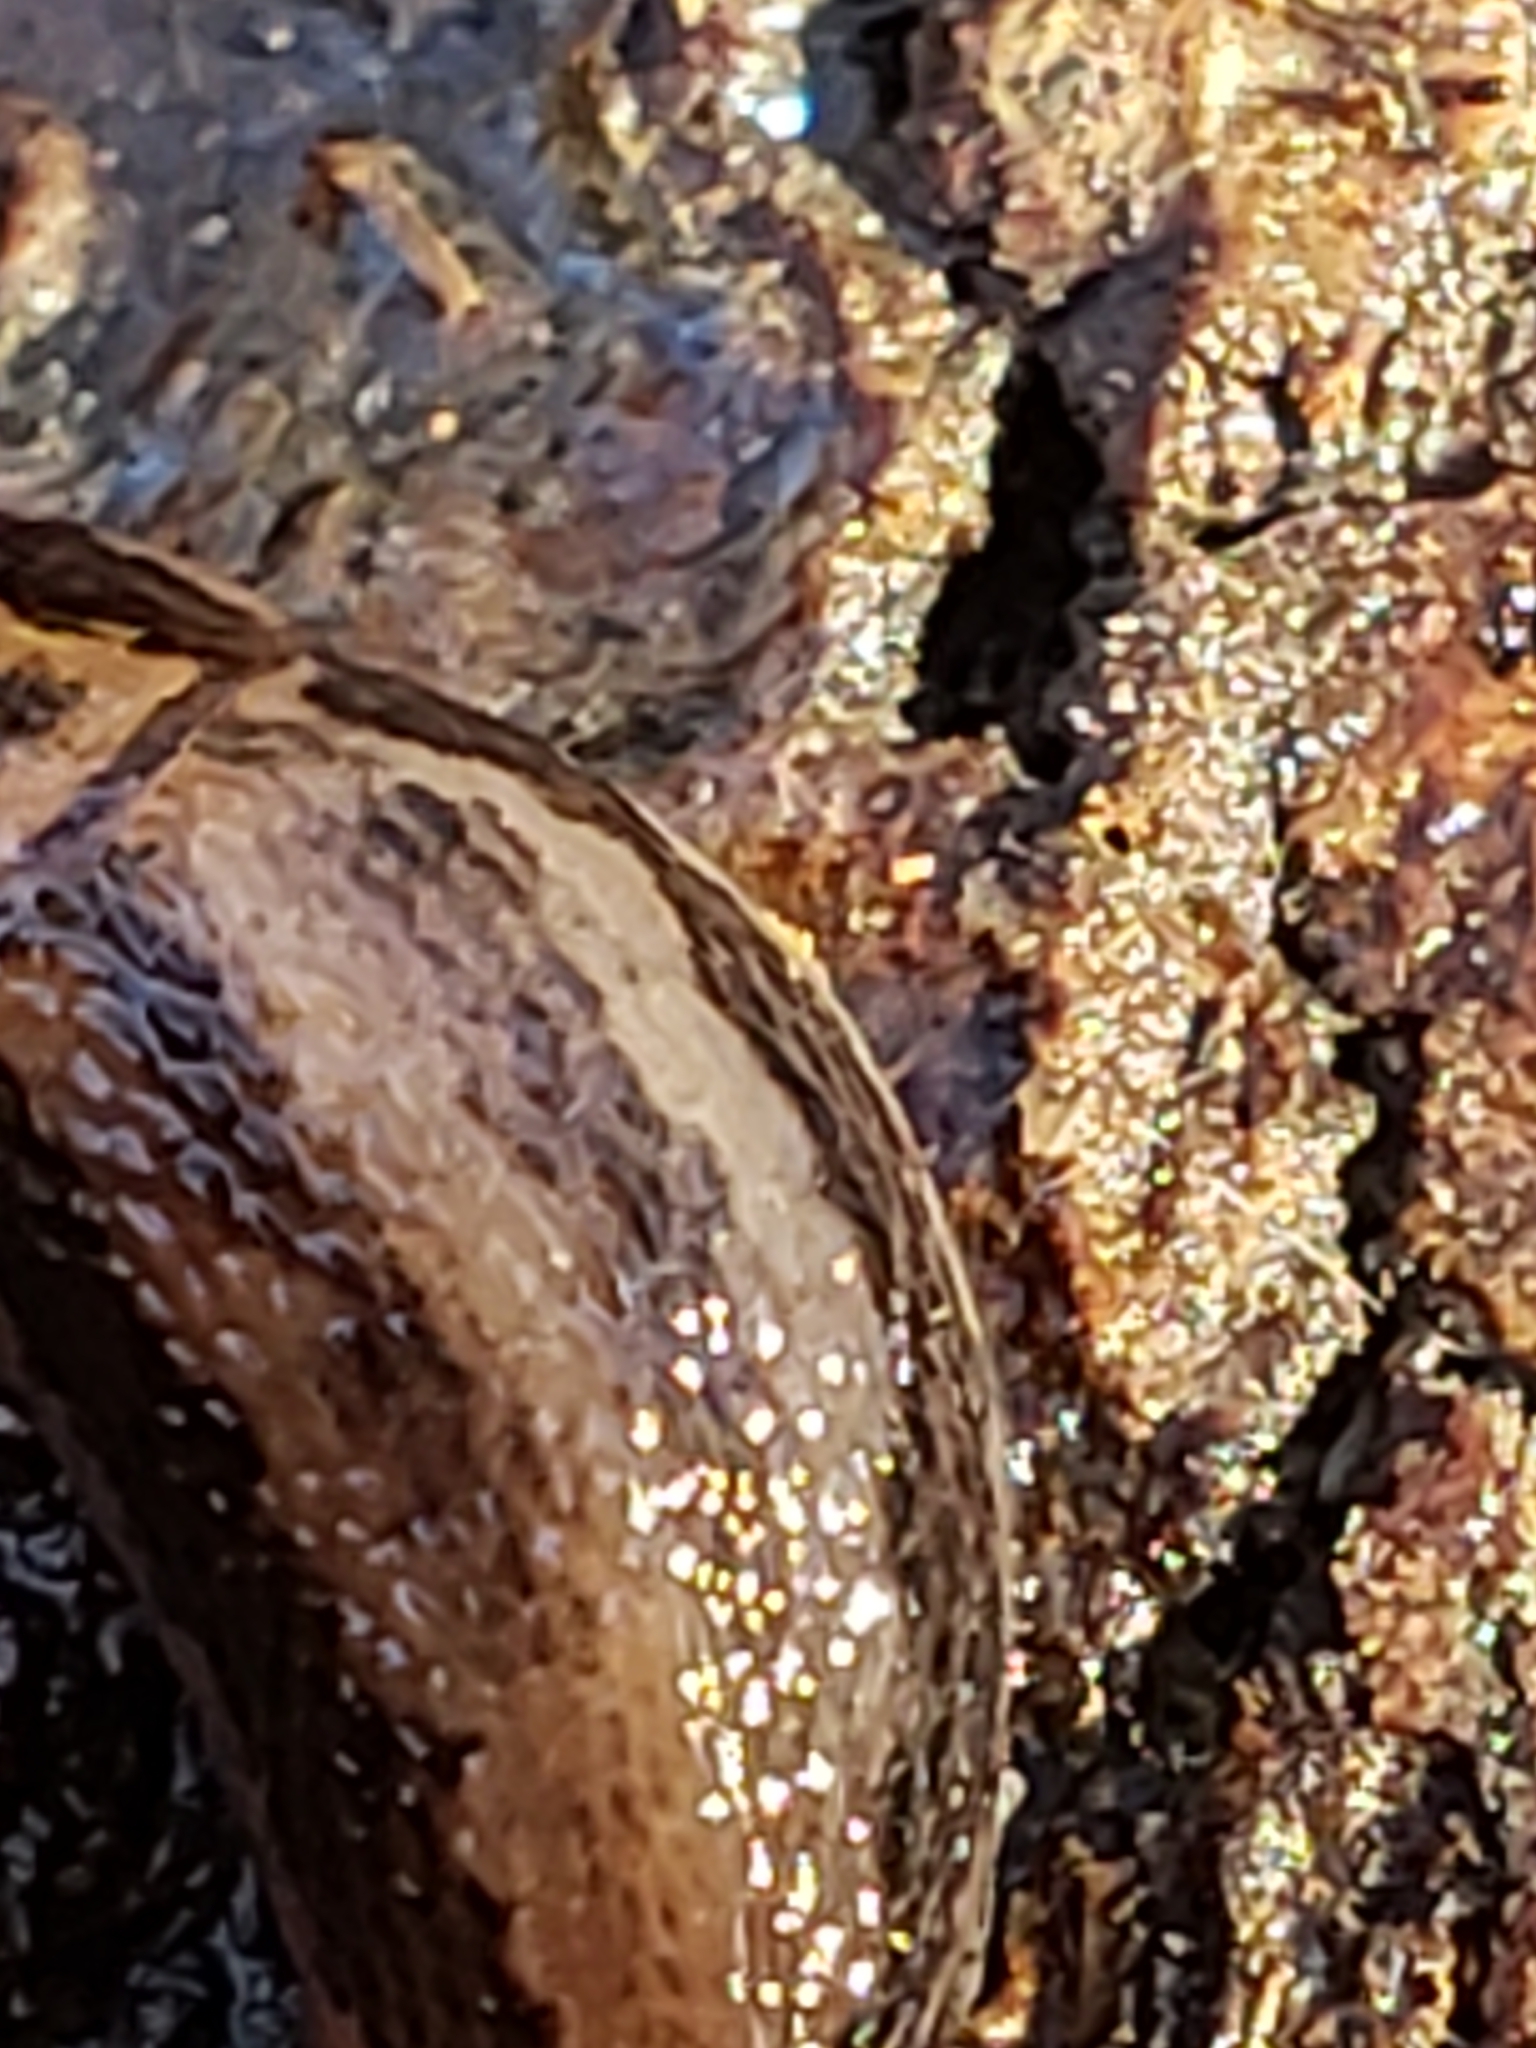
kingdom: Animalia
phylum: Mollusca
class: Gastropoda
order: Stylommatophora
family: Limacidae
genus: Limax
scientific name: Limax maximus
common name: Great grey slug
